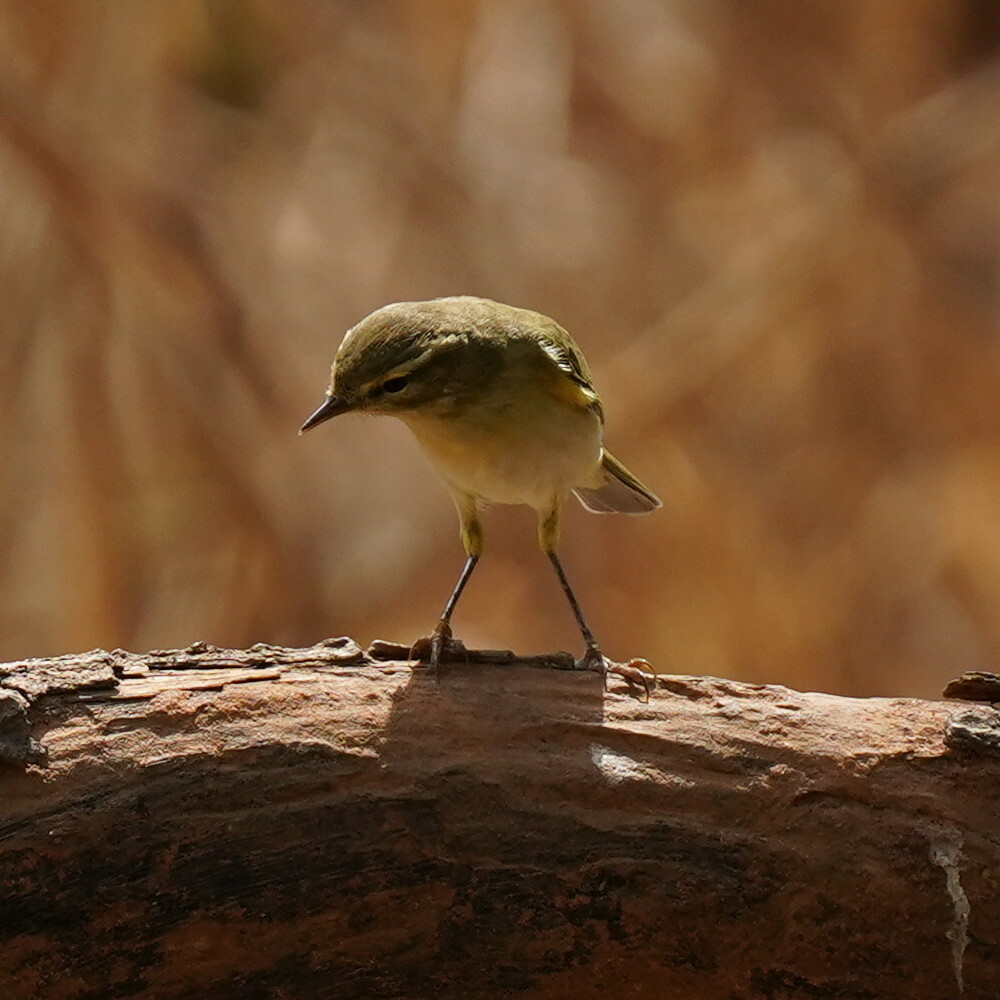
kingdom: Animalia
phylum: Chordata
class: Aves
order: Passeriformes
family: Phylloscopidae
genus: Phylloscopus
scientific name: Phylloscopus trochilus
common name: Willow warbler
